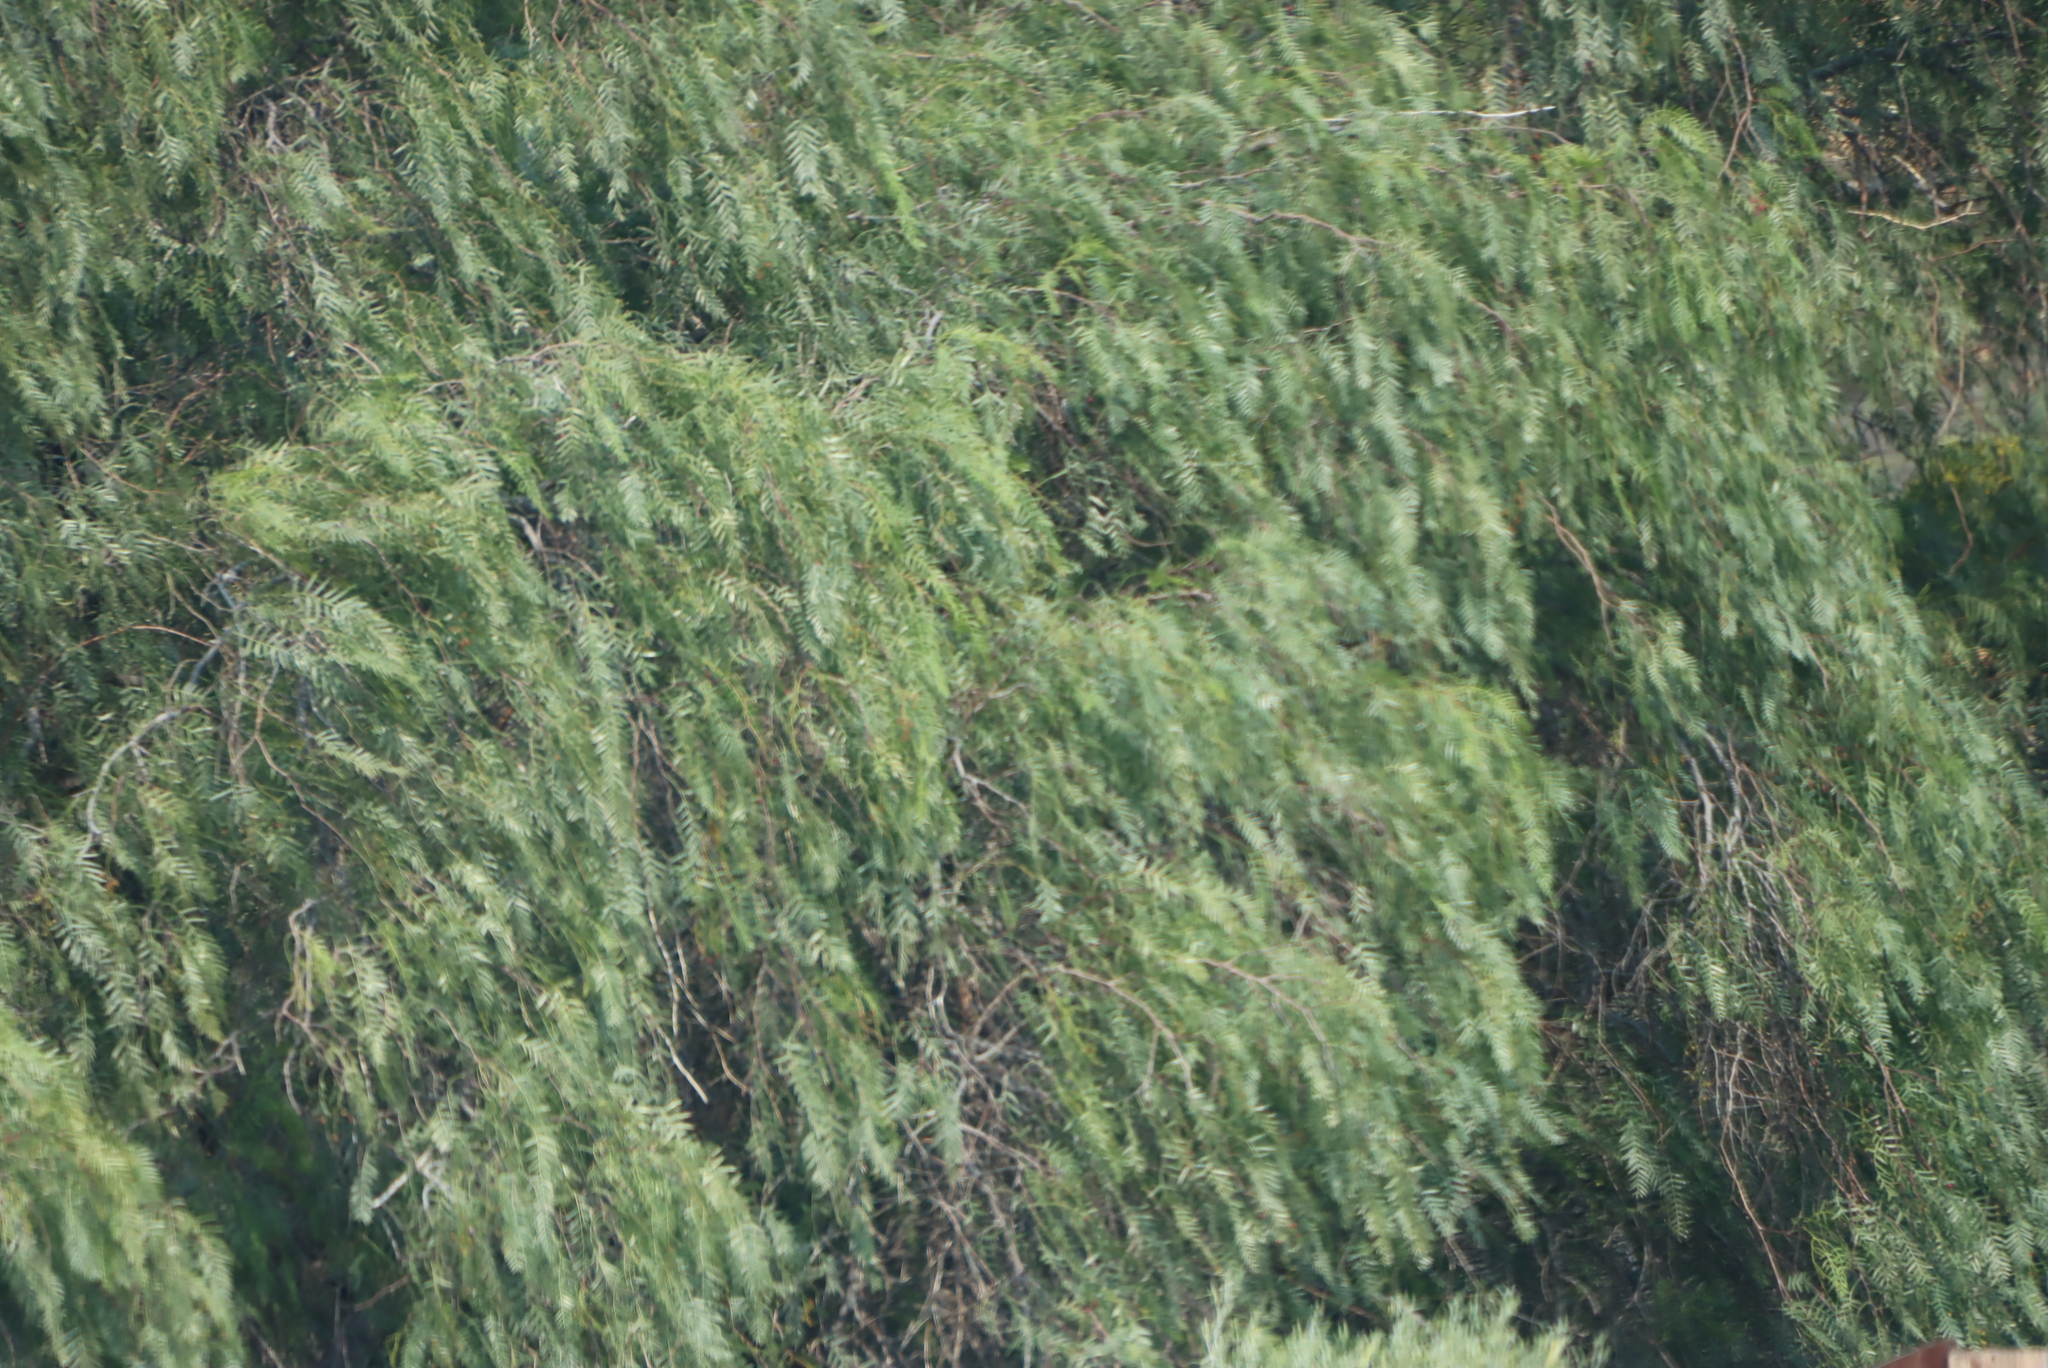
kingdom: Plantae
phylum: Tracheophyta
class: Magnoliopsida
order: Sapindales
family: Anacardiaceae
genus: Schinus
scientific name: Schinus molle
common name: Peruvian peppertree
